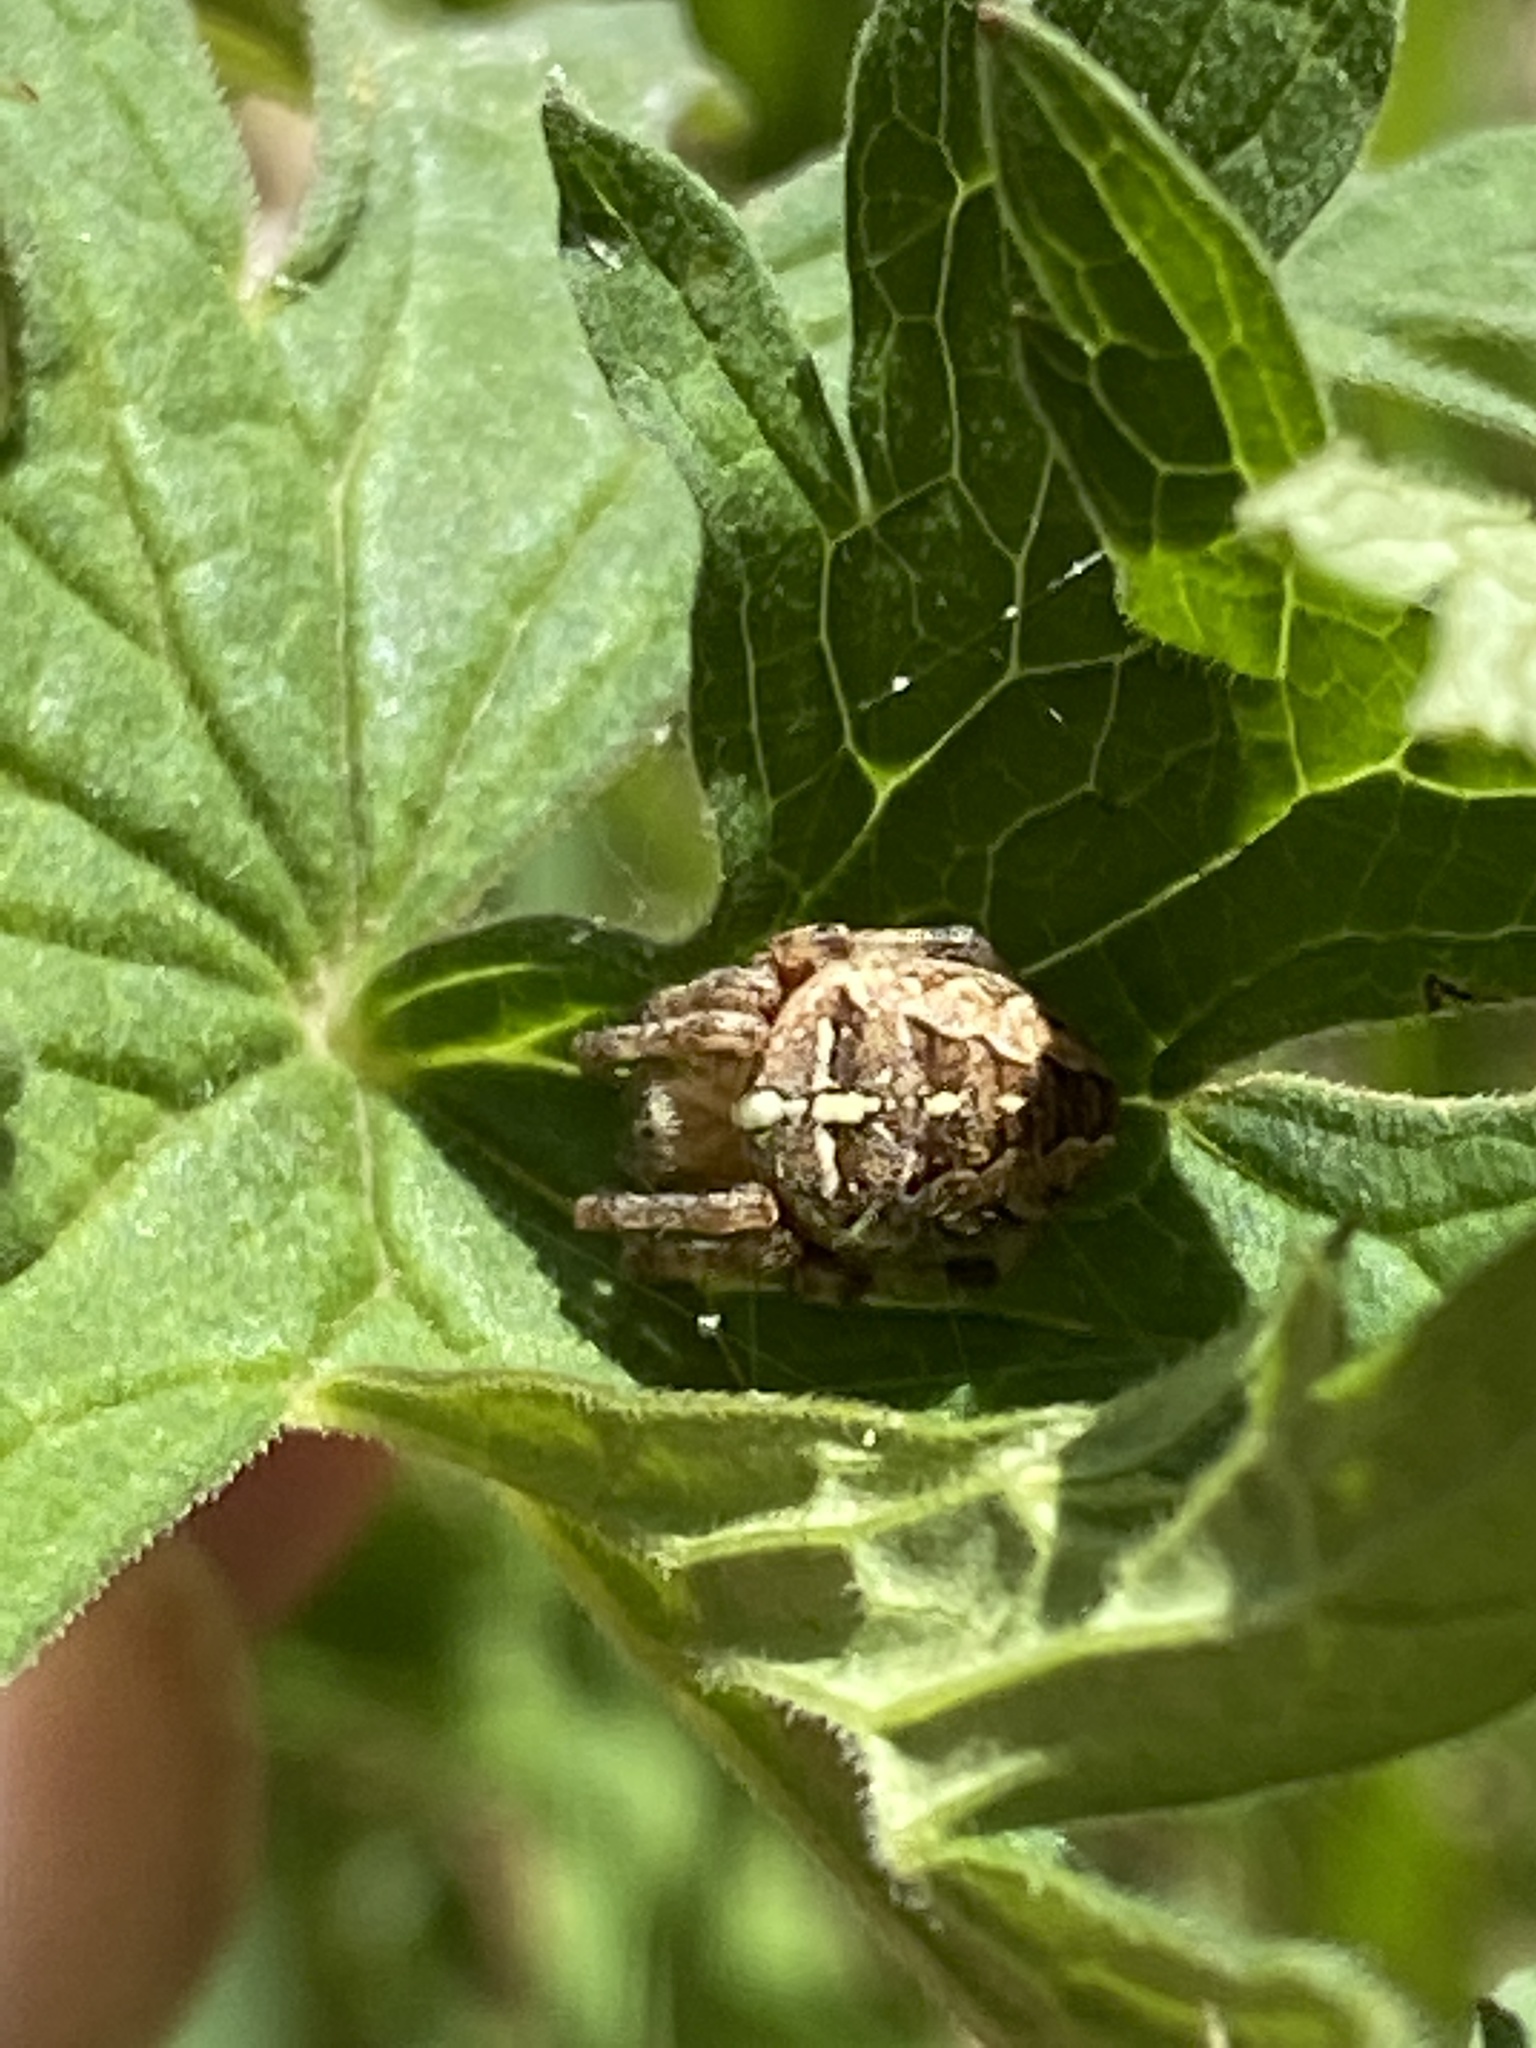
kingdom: Animalia
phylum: Arthropoda
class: Arachnida
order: Araneae
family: Araneidae
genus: Araneus
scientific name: Araneus diadematus
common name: Cross orbweaver
